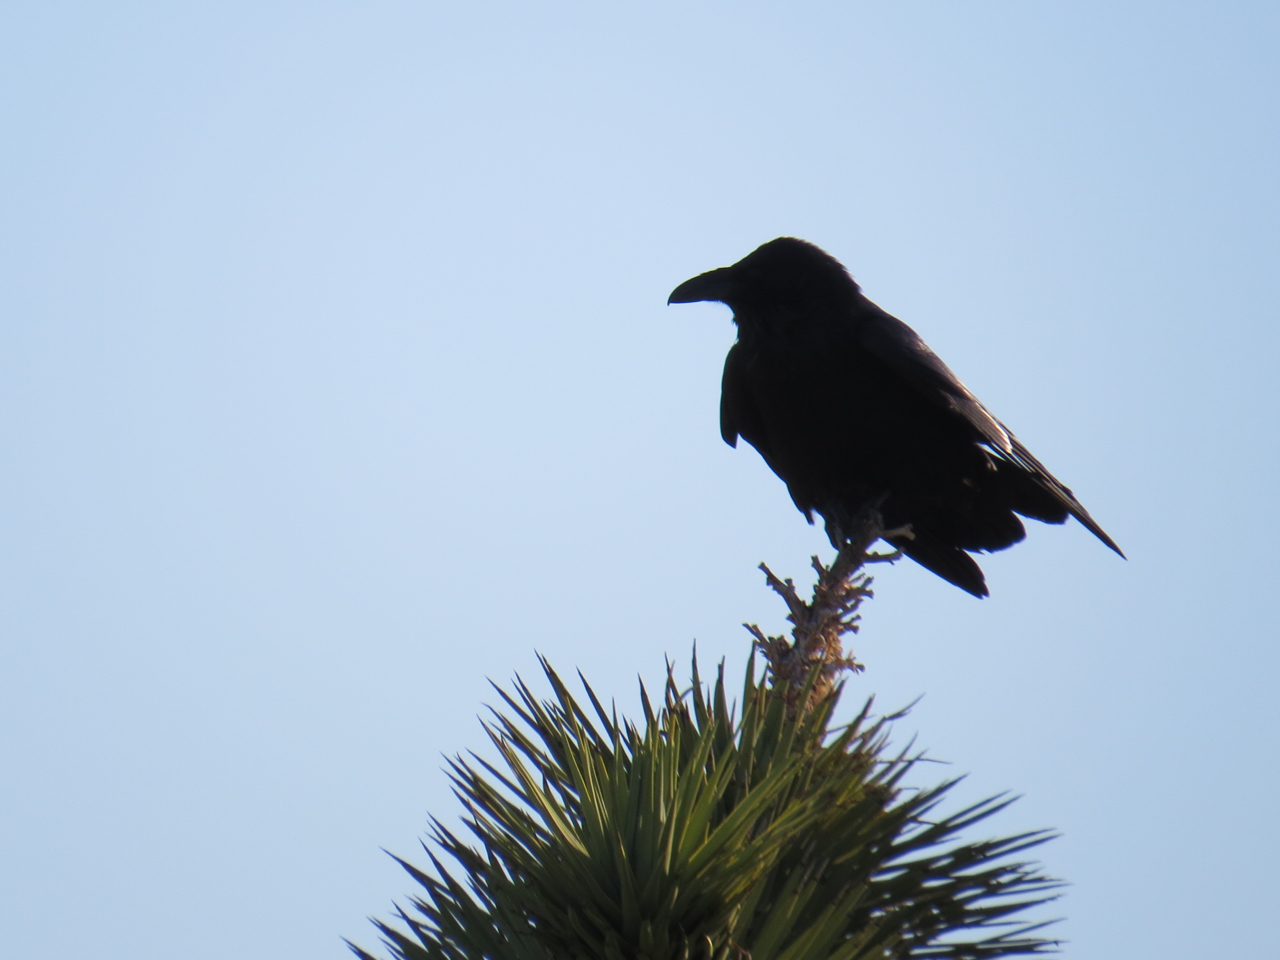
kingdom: Animalia
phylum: Chordata
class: Aves
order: Passeriformes
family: Corvidae
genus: Corvus
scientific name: Corvus corax
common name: Common raven
